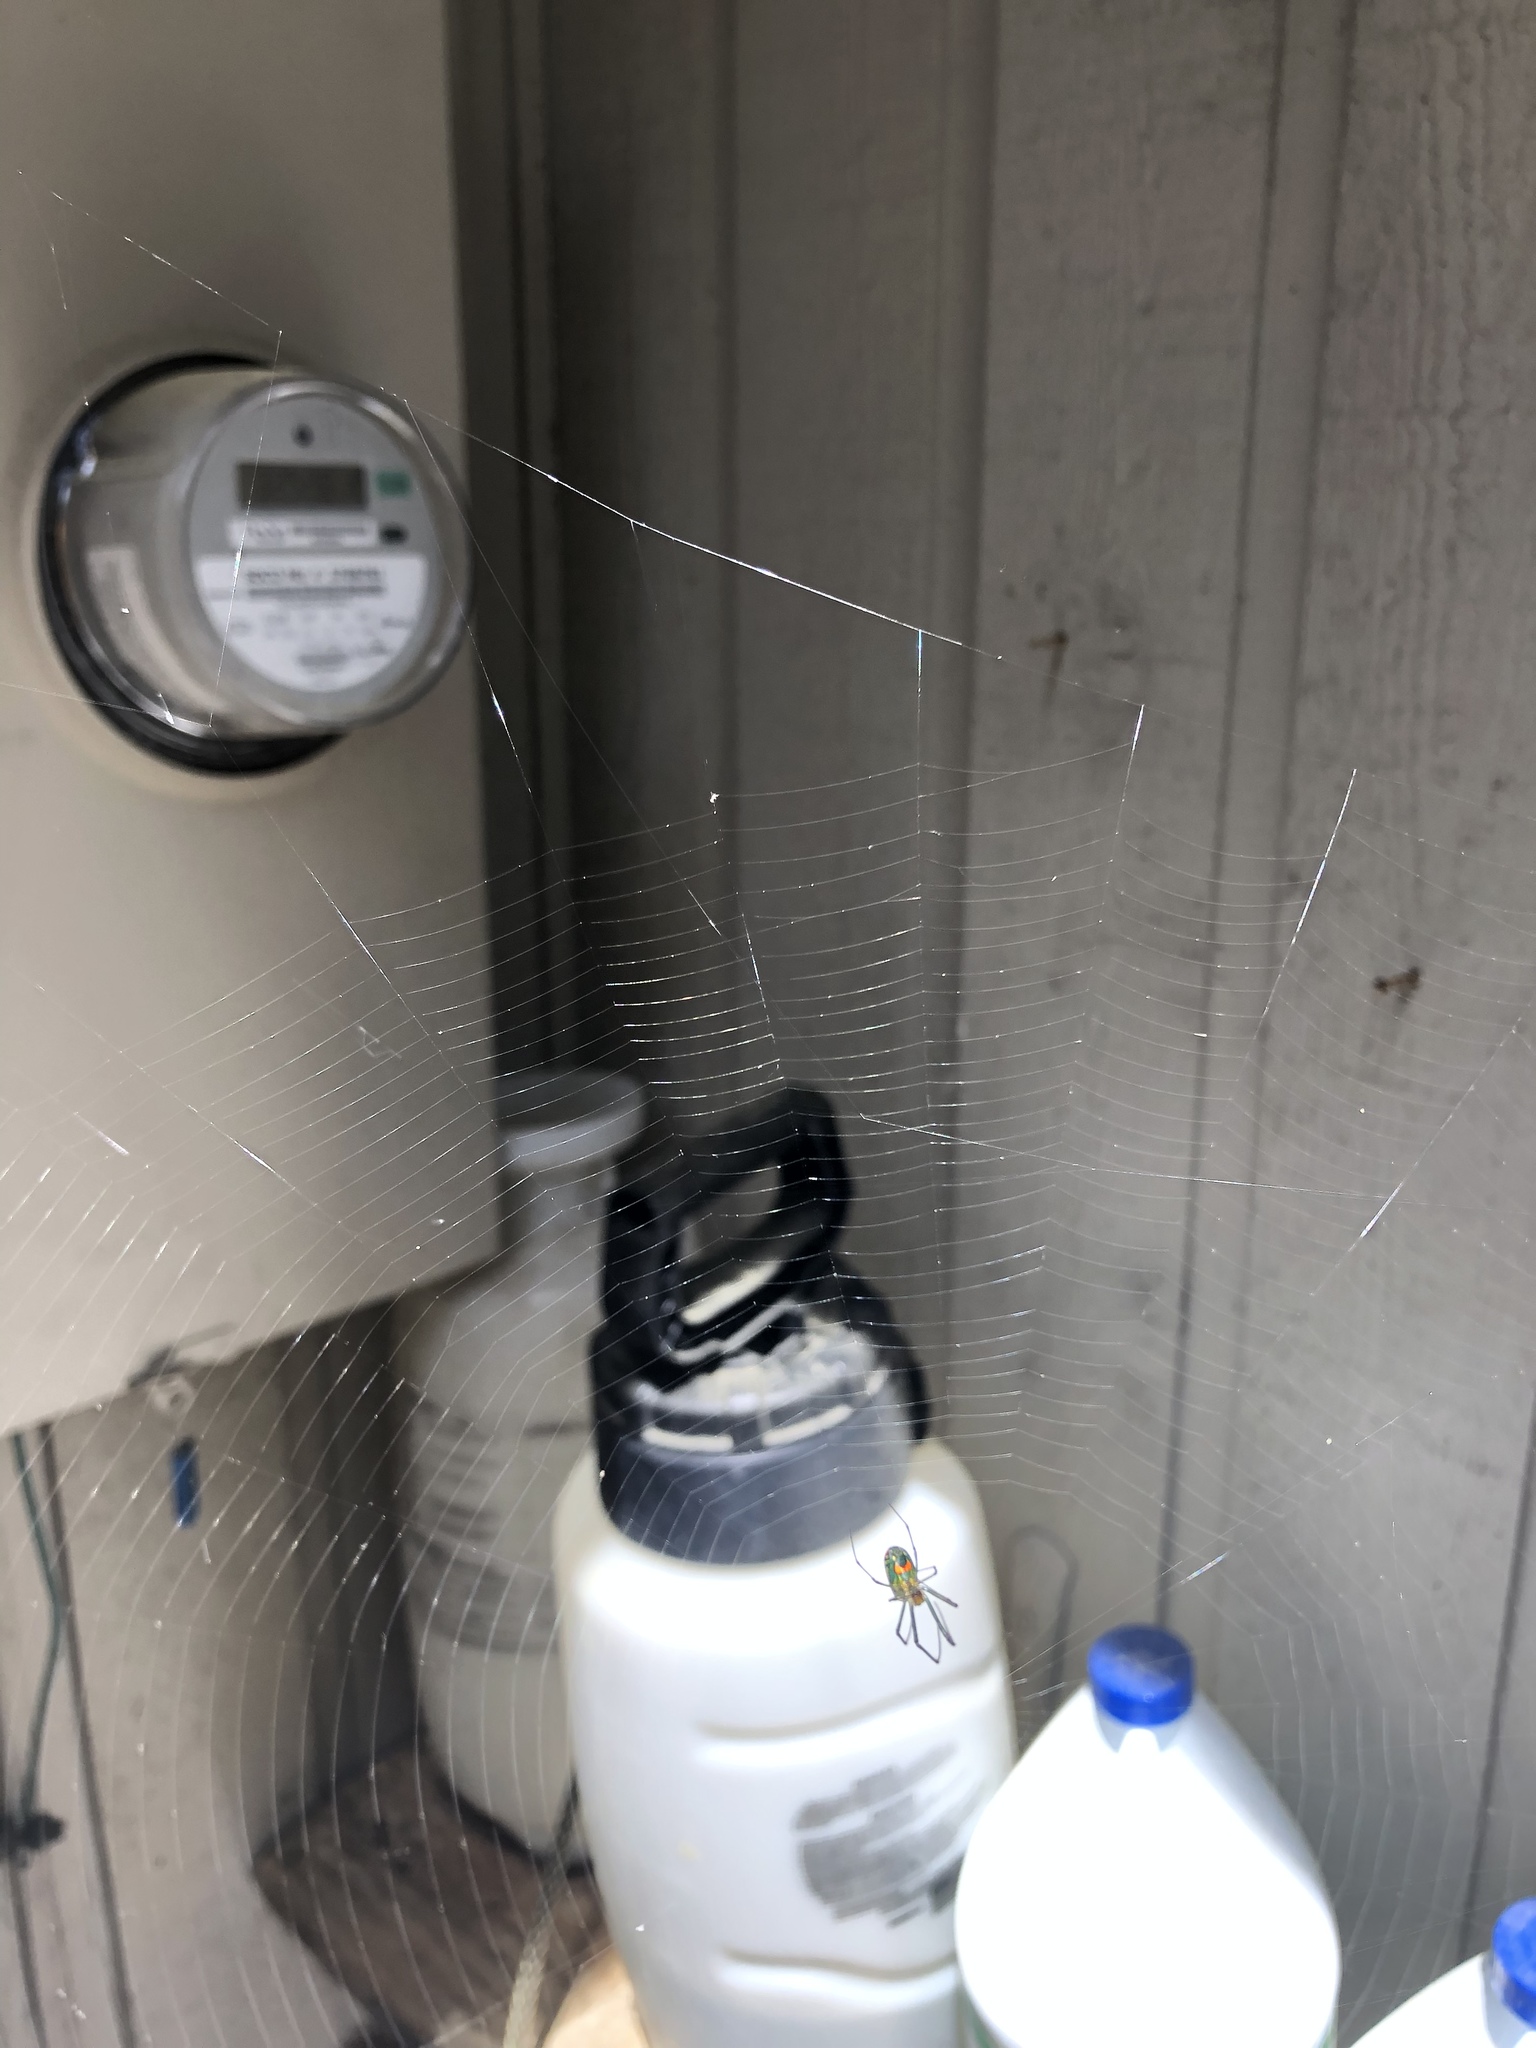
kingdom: Animalia
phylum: Arthropoda
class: Arachnida
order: Araneae
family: Tetragnathidae
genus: Leucauge
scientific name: Leucauge argyrobapta
